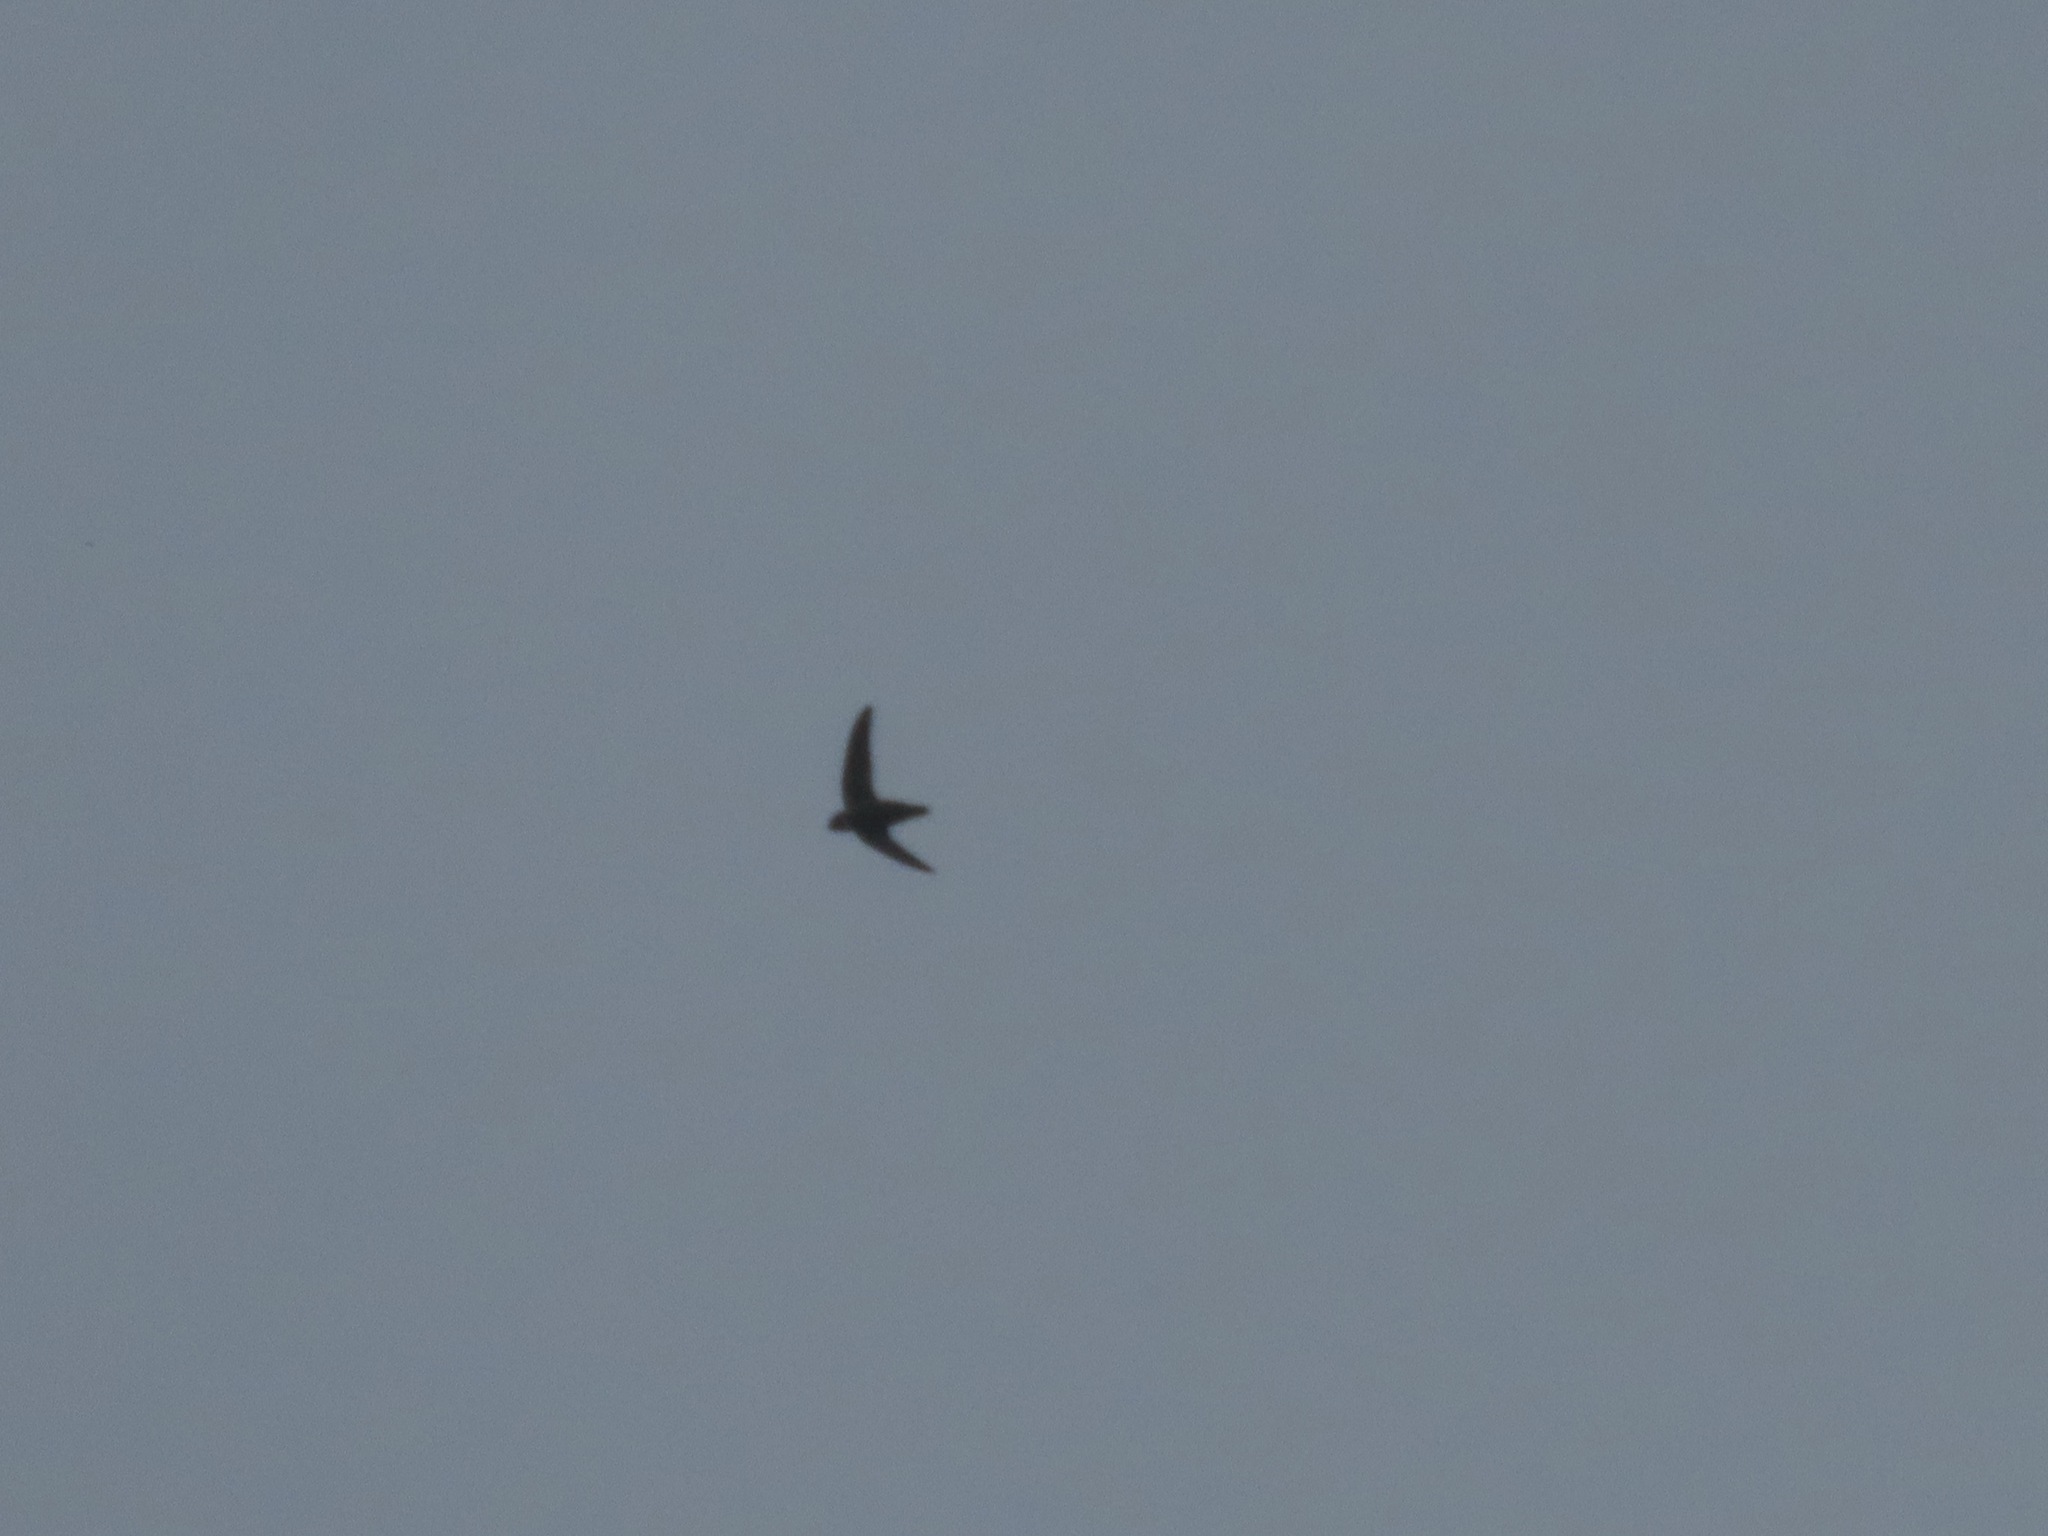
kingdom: Animalia
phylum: Chordata
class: Aves
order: Apodiformes
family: Apodidae
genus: Chaetura
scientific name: Chaetura vauxi
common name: Vaux's swift
